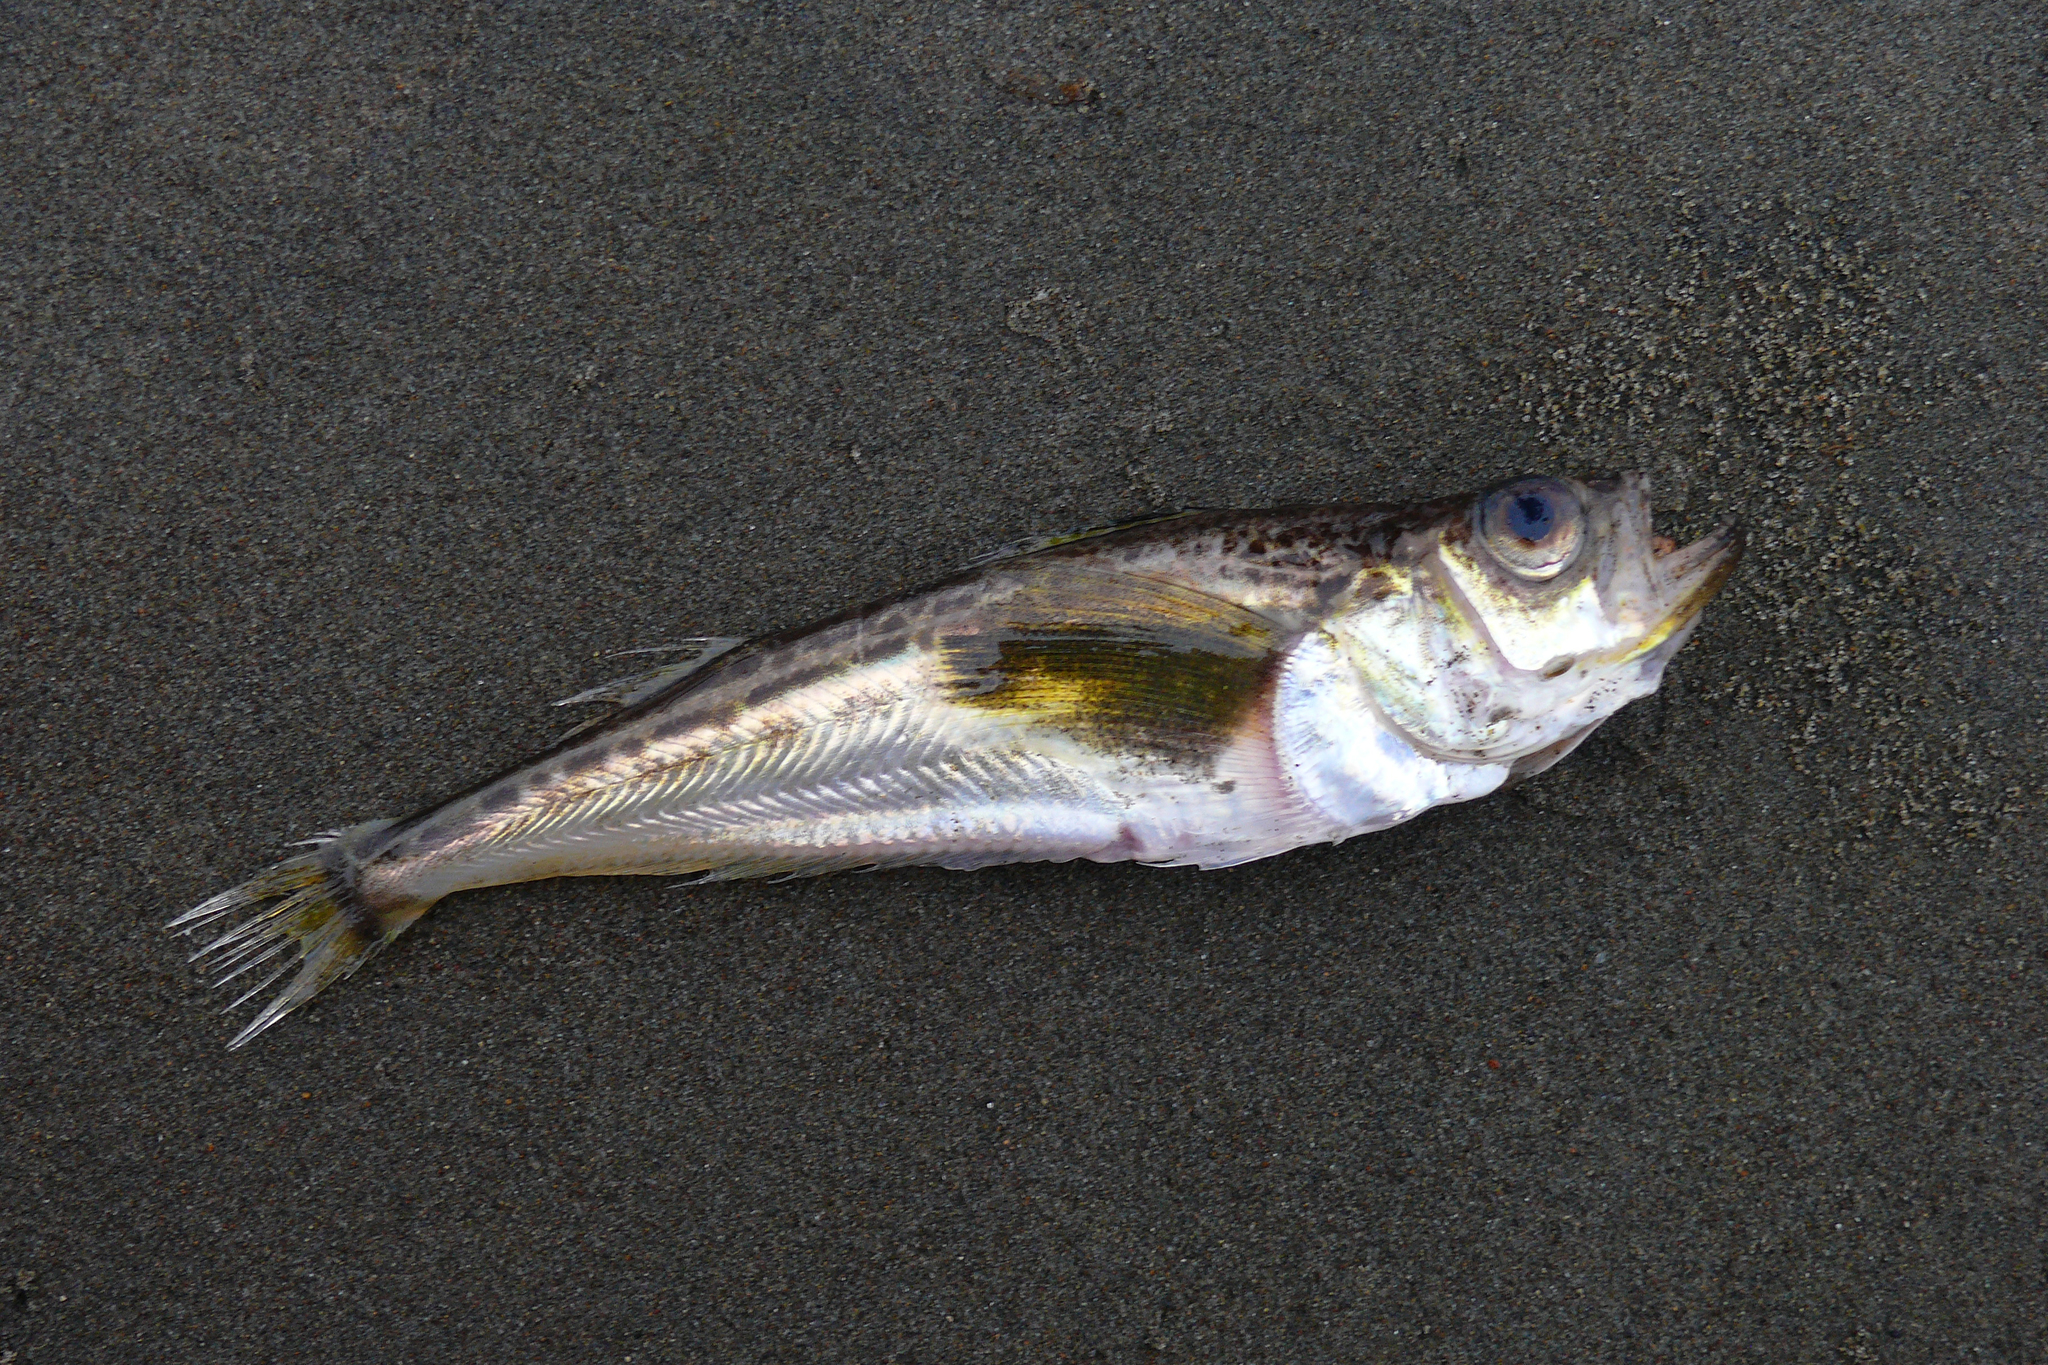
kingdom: Animalia
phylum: Chordata
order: Perciformes
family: Trichodontidae
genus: Arctoscopus
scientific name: Arctoscopus japonicus
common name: Sailfin sandfish
